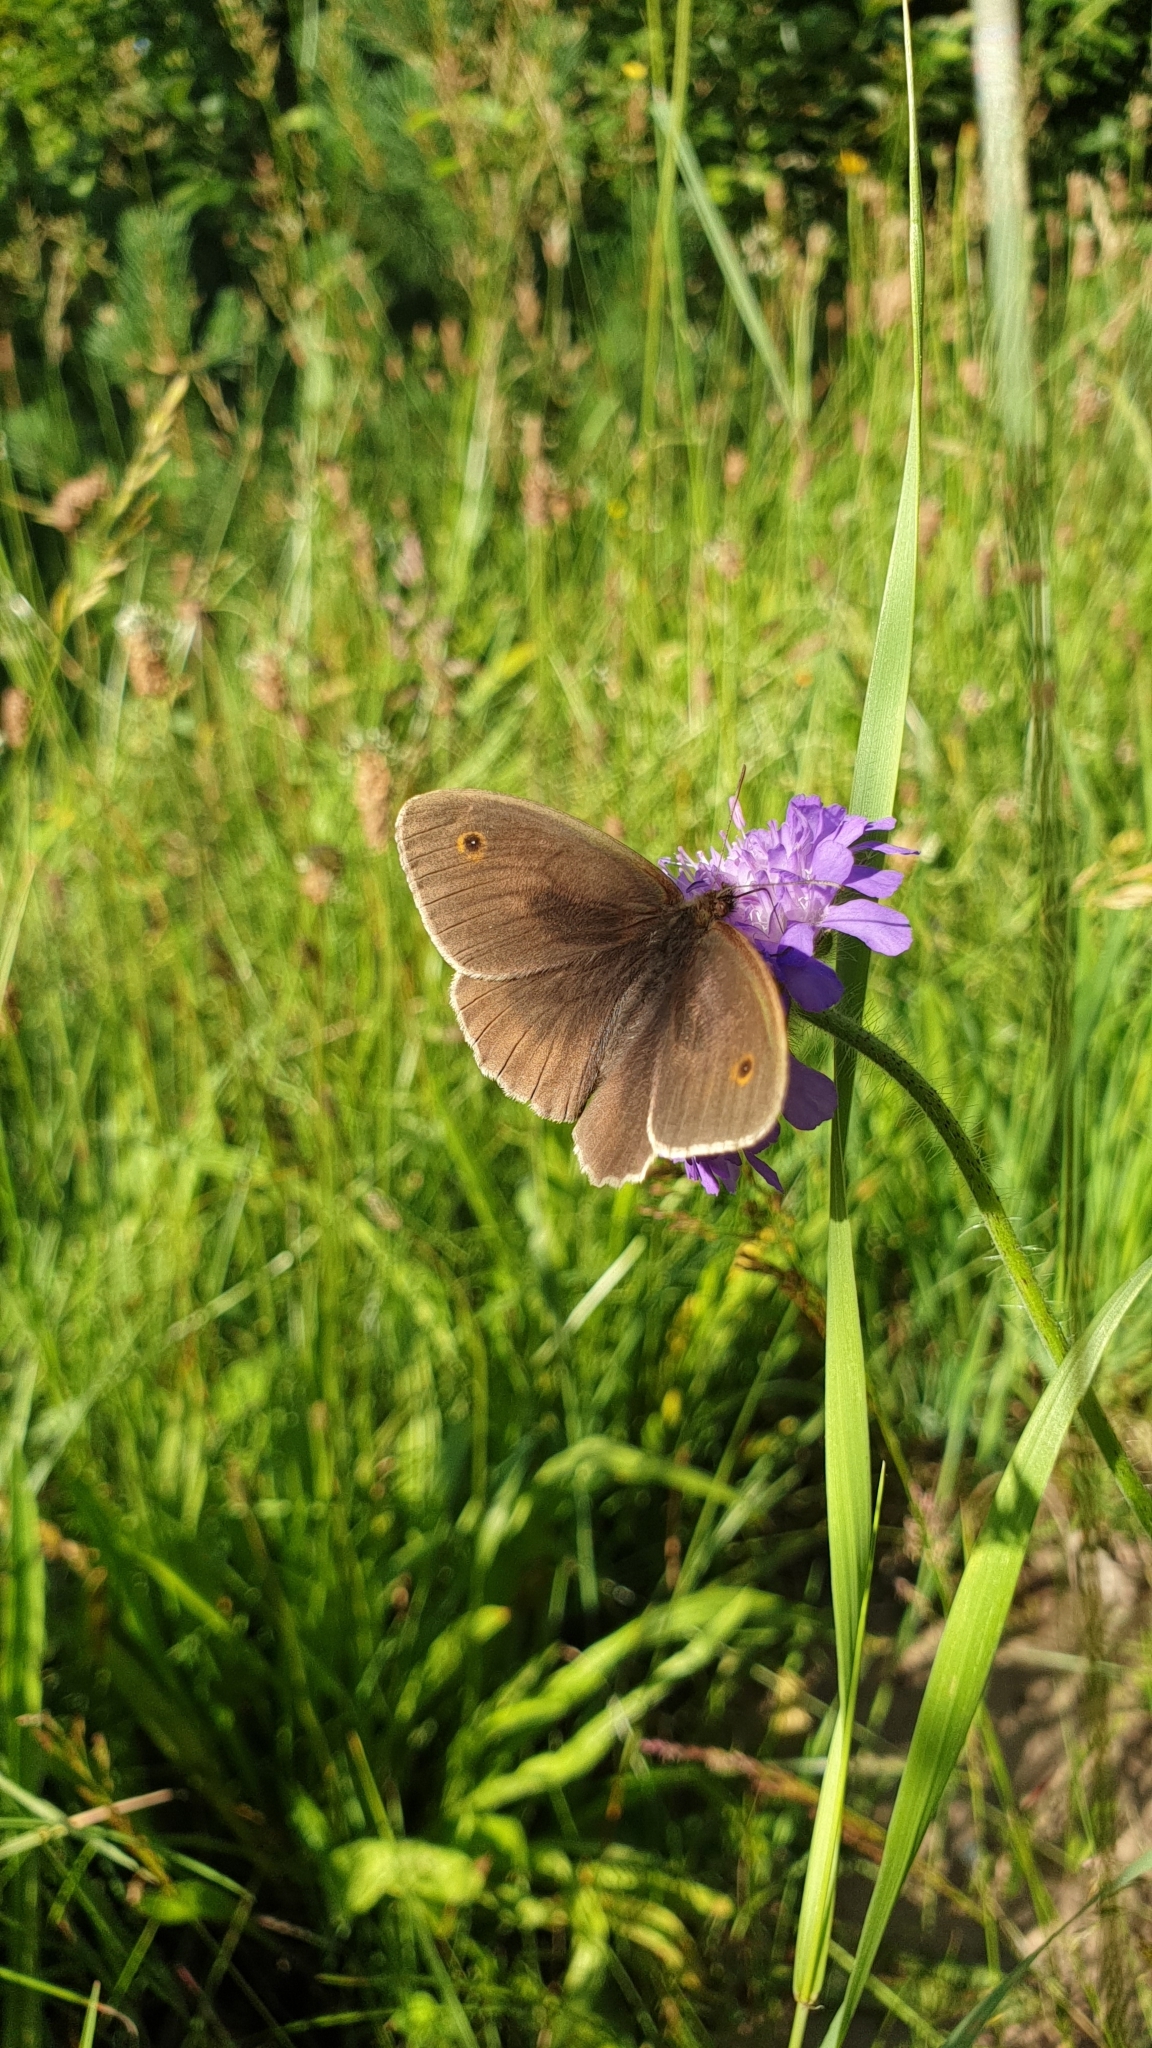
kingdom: Animalia
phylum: Arthropoda
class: Insecta
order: Lepidoptera
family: Nymphalidae
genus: Maniola
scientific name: Maniola jurtina
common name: Meadow brown
